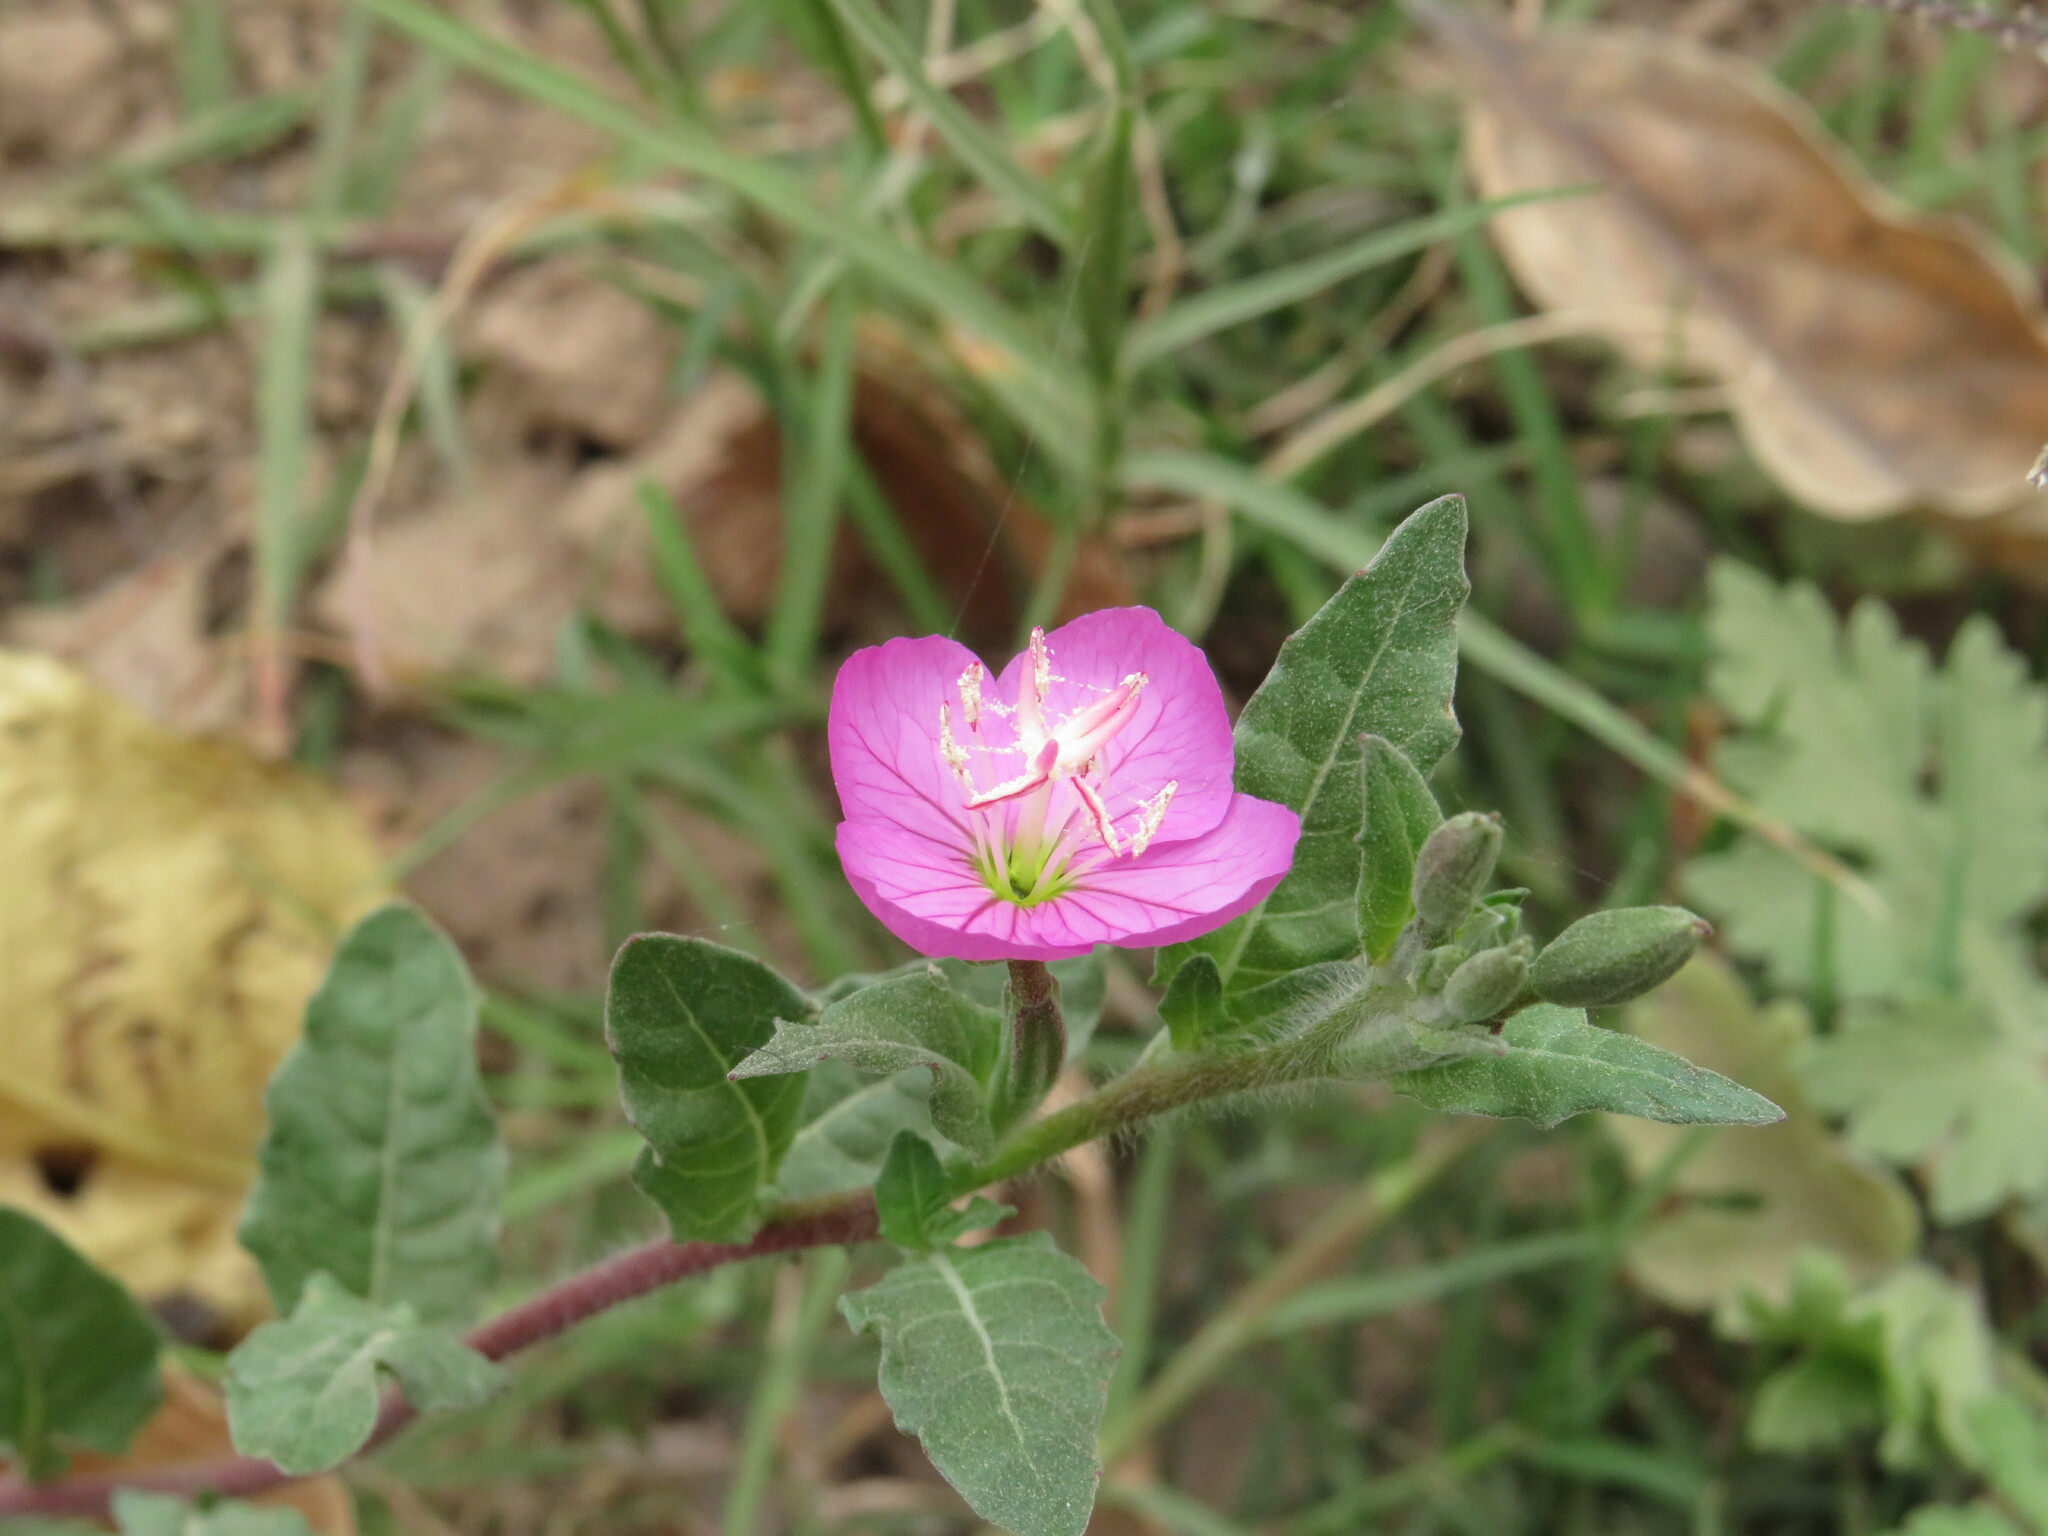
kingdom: Plantae
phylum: Tracheophyta
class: Magnoliopsida
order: Myrtales
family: Onagraceae
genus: Oenothera
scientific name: Oenothera rosea
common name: Rosy evening-primrose
